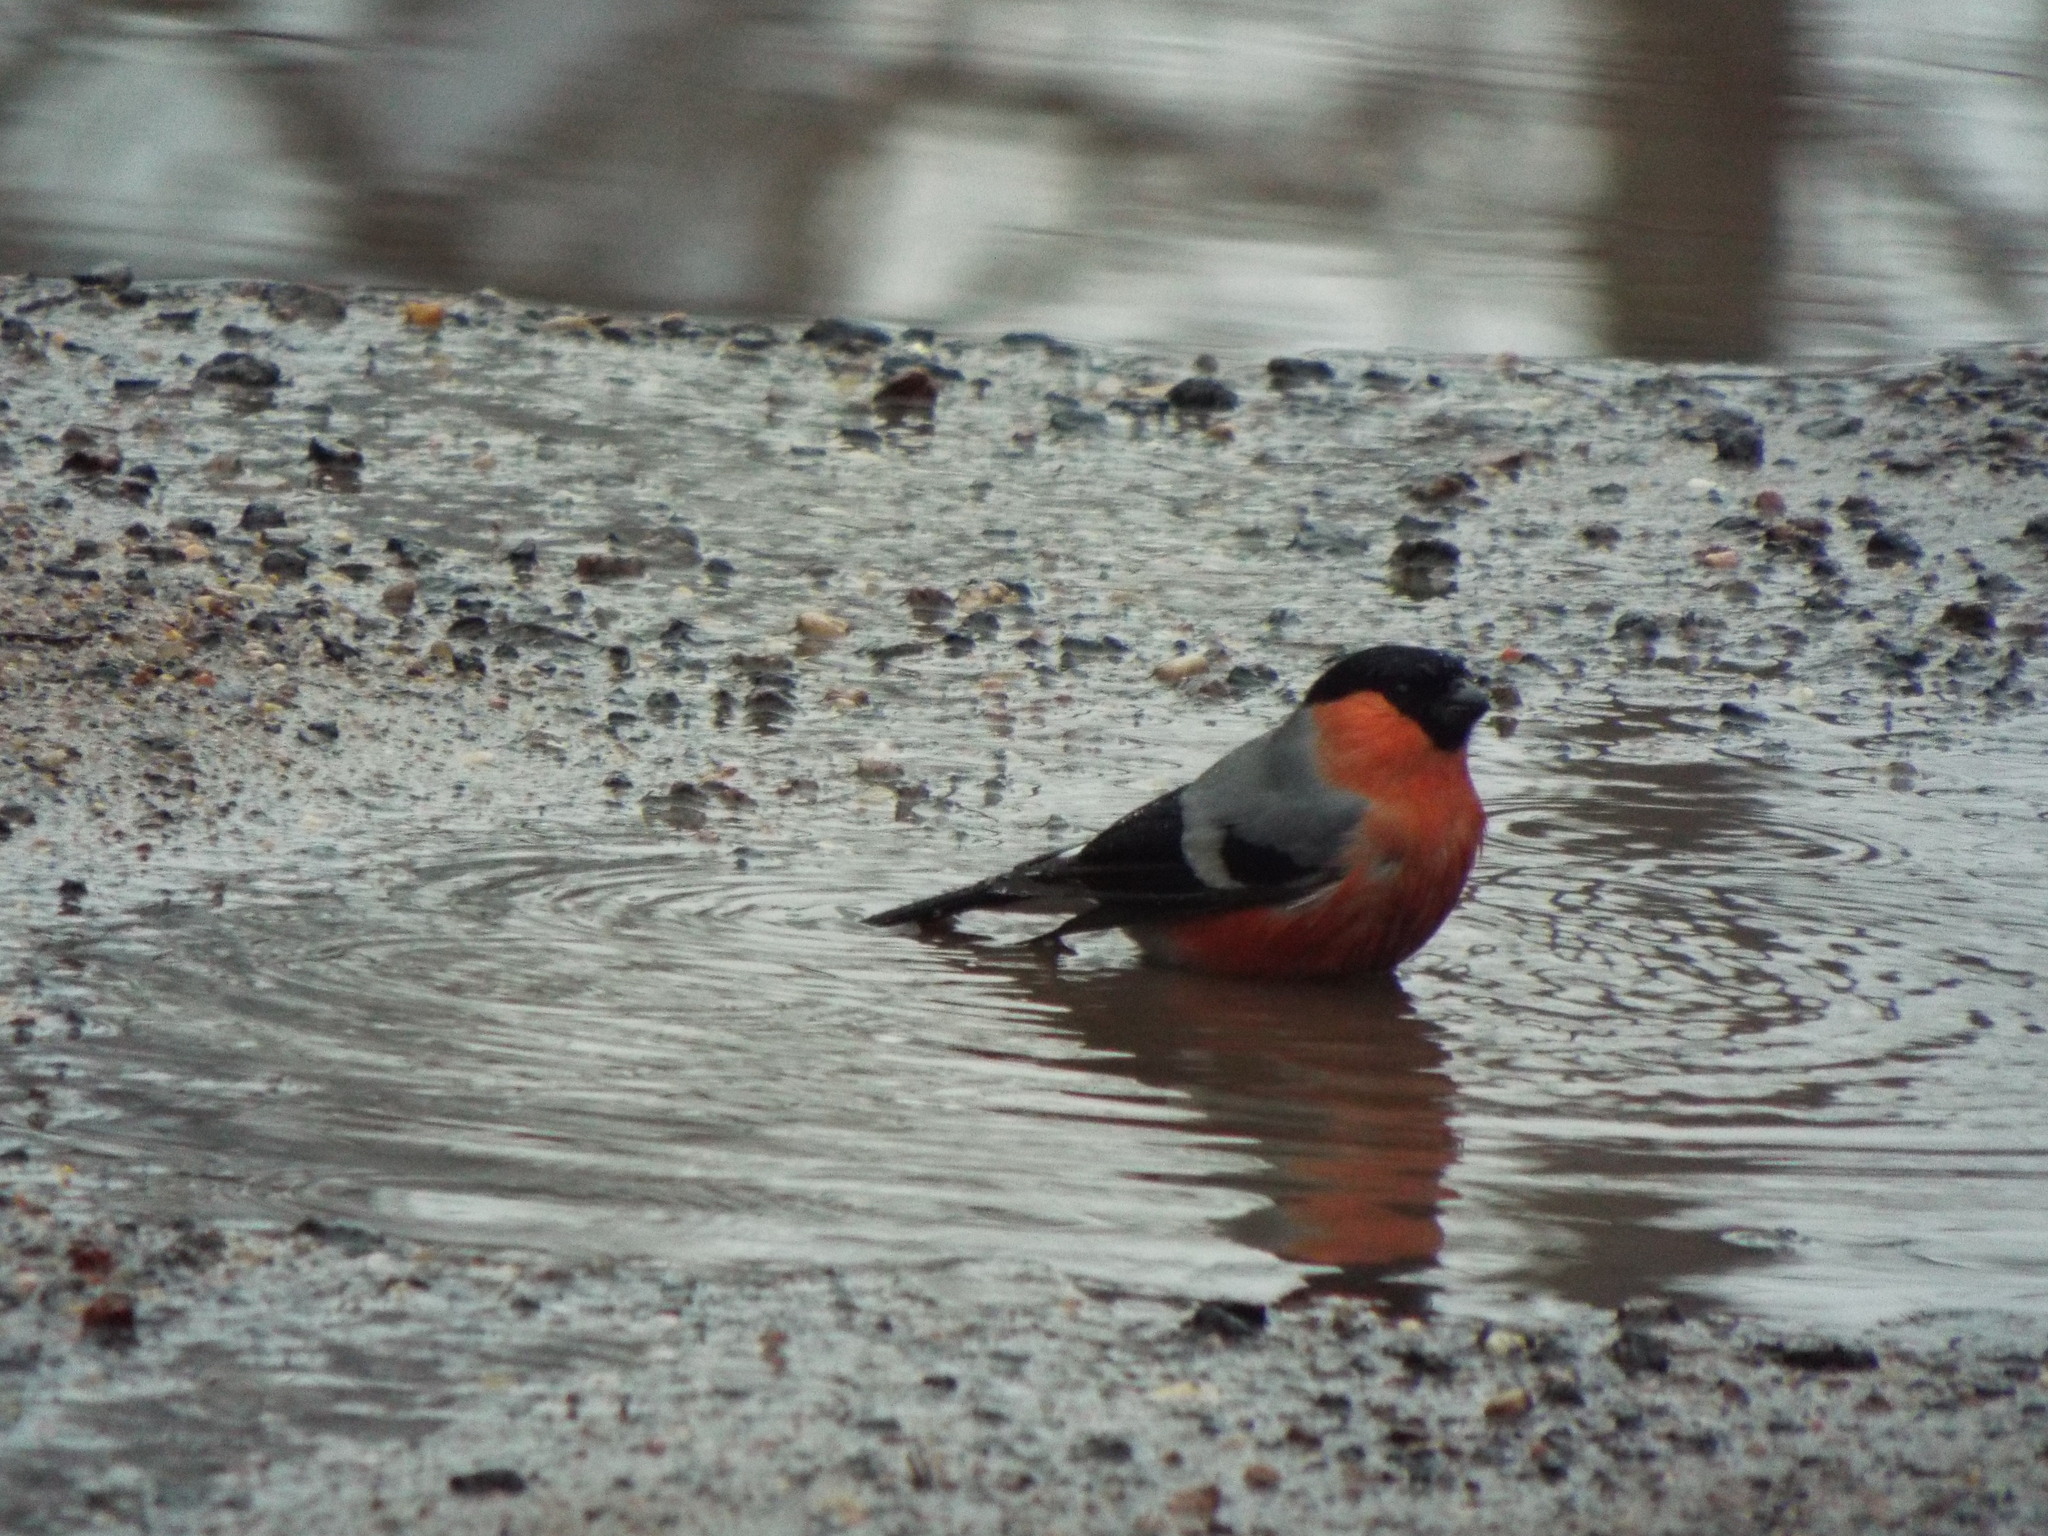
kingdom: Animalia
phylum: Chordata
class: Aves
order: Passeriformes
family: Fringillidae
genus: Pyrrhula
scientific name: Pyrrhula pyrrhula
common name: Eurasian bullfinch
